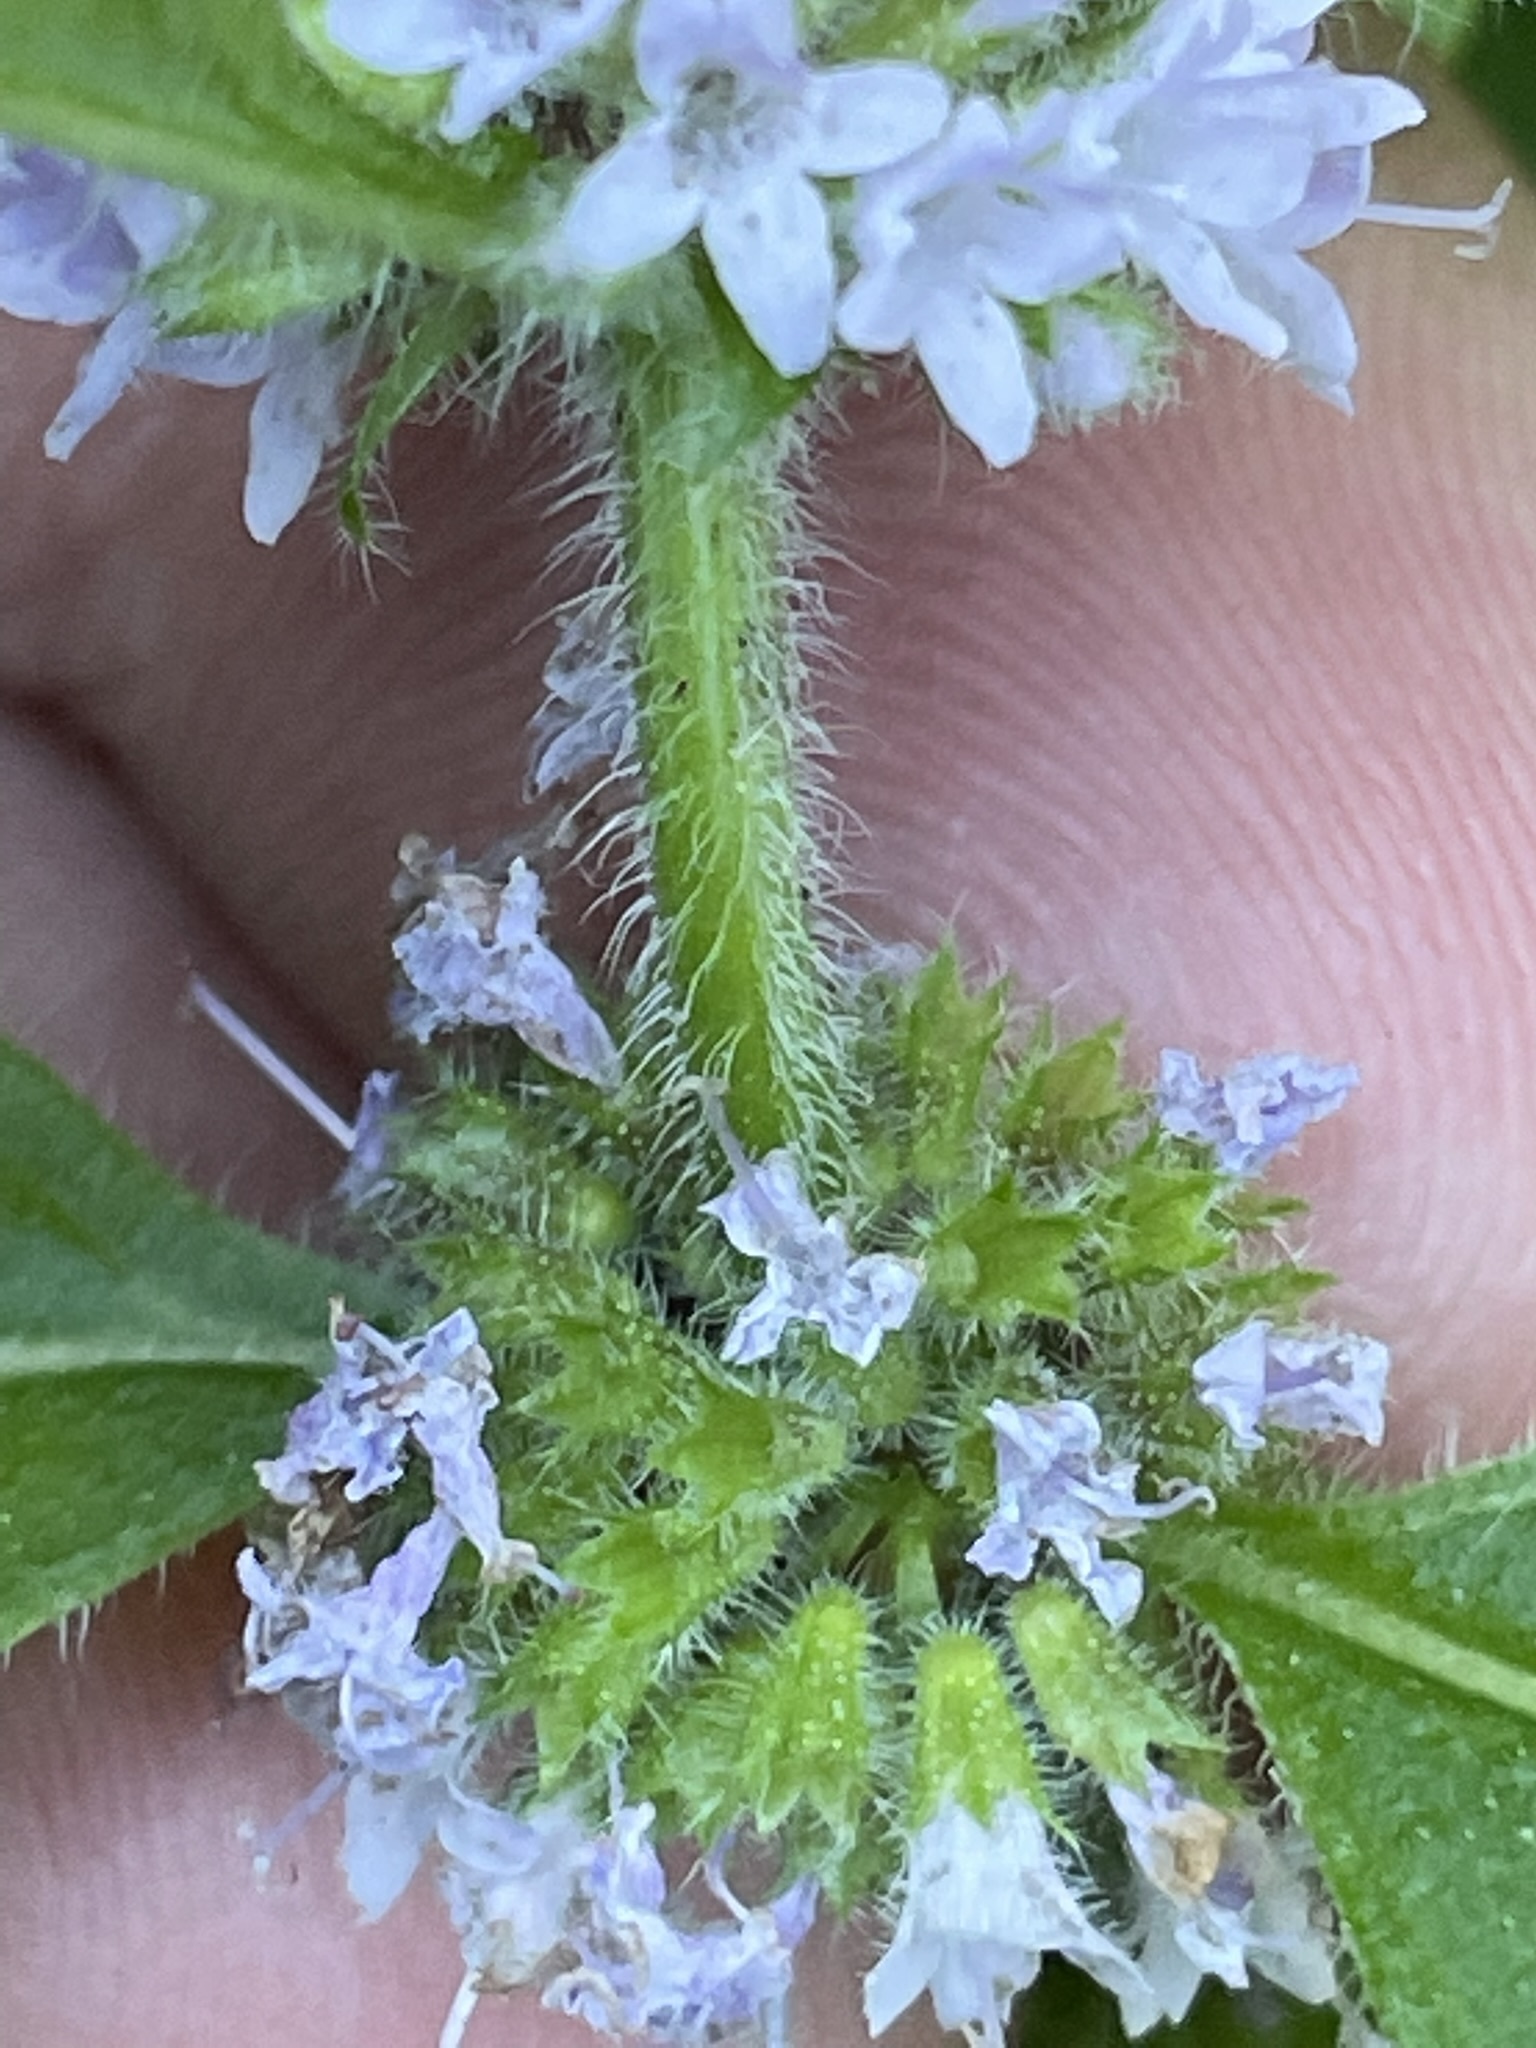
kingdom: Plantae
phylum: Tracheophyta
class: Magnoliopsida
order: Lamiales
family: Lamiaceae
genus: Mentha
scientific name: Mentha arvensis
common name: Corn mint
